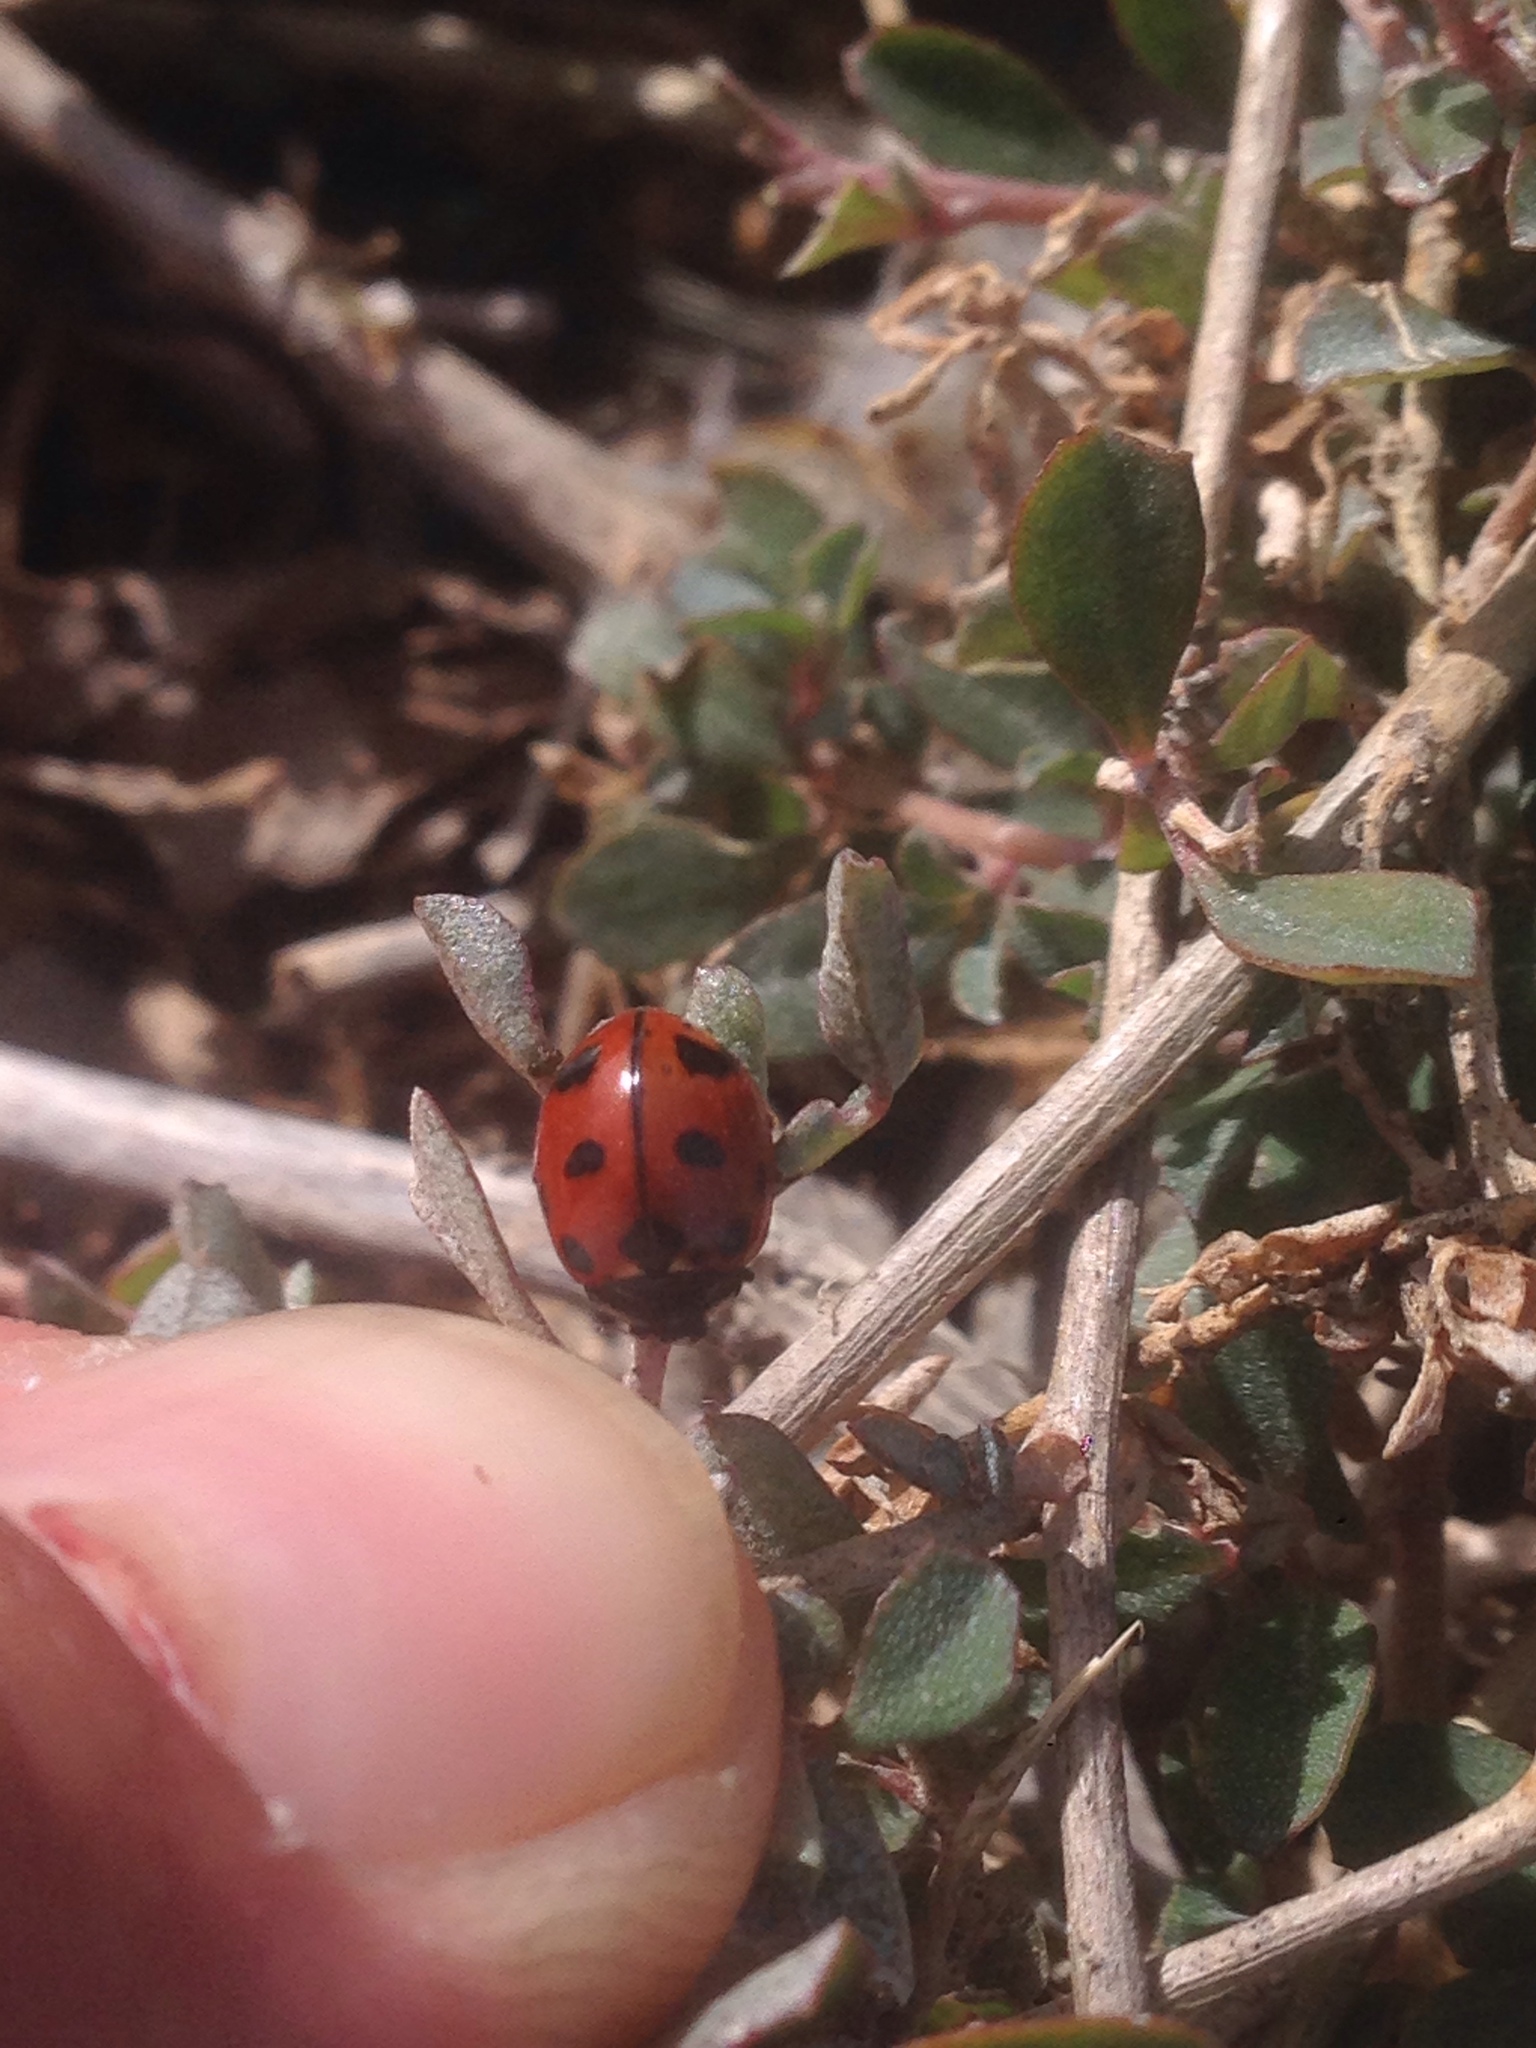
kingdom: Animalia
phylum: Arthropoda
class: Insecta
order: Coleoptera
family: Coccinellidae
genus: Coccinella
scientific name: Coccinella californica
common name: Lady beetle
